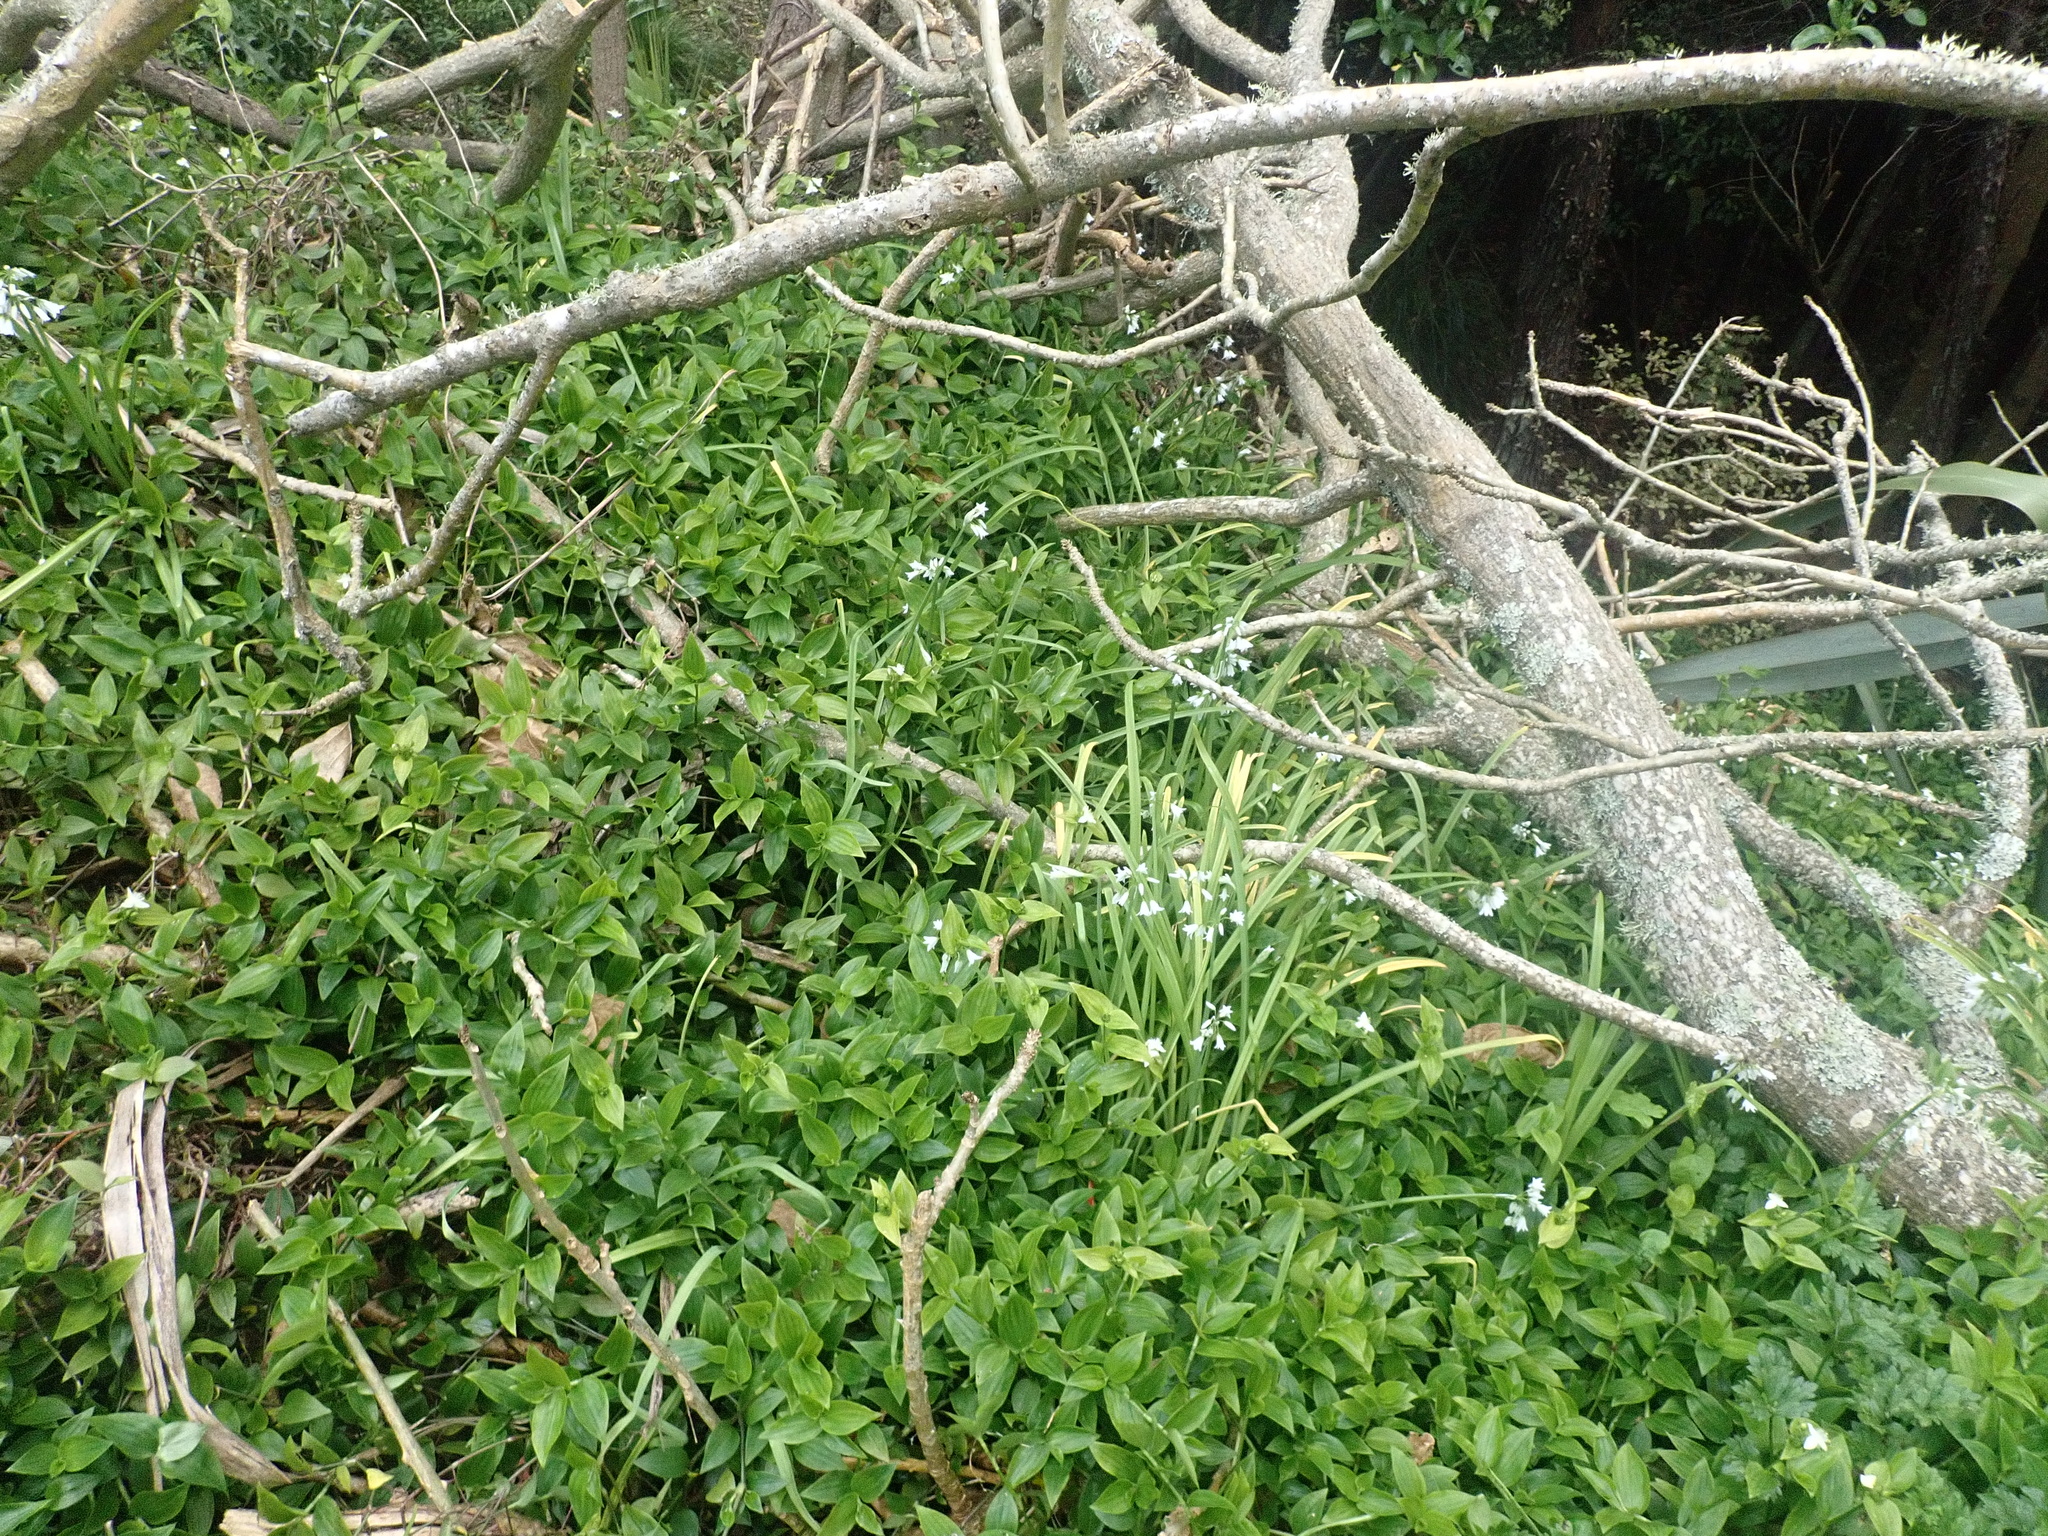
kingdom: Plantae
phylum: Tracheophyta
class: Liliopsida
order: Commelinales
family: Commelinaceae
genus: Tradescantia
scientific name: Tradescantia fluminensis
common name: Wandering-jew
